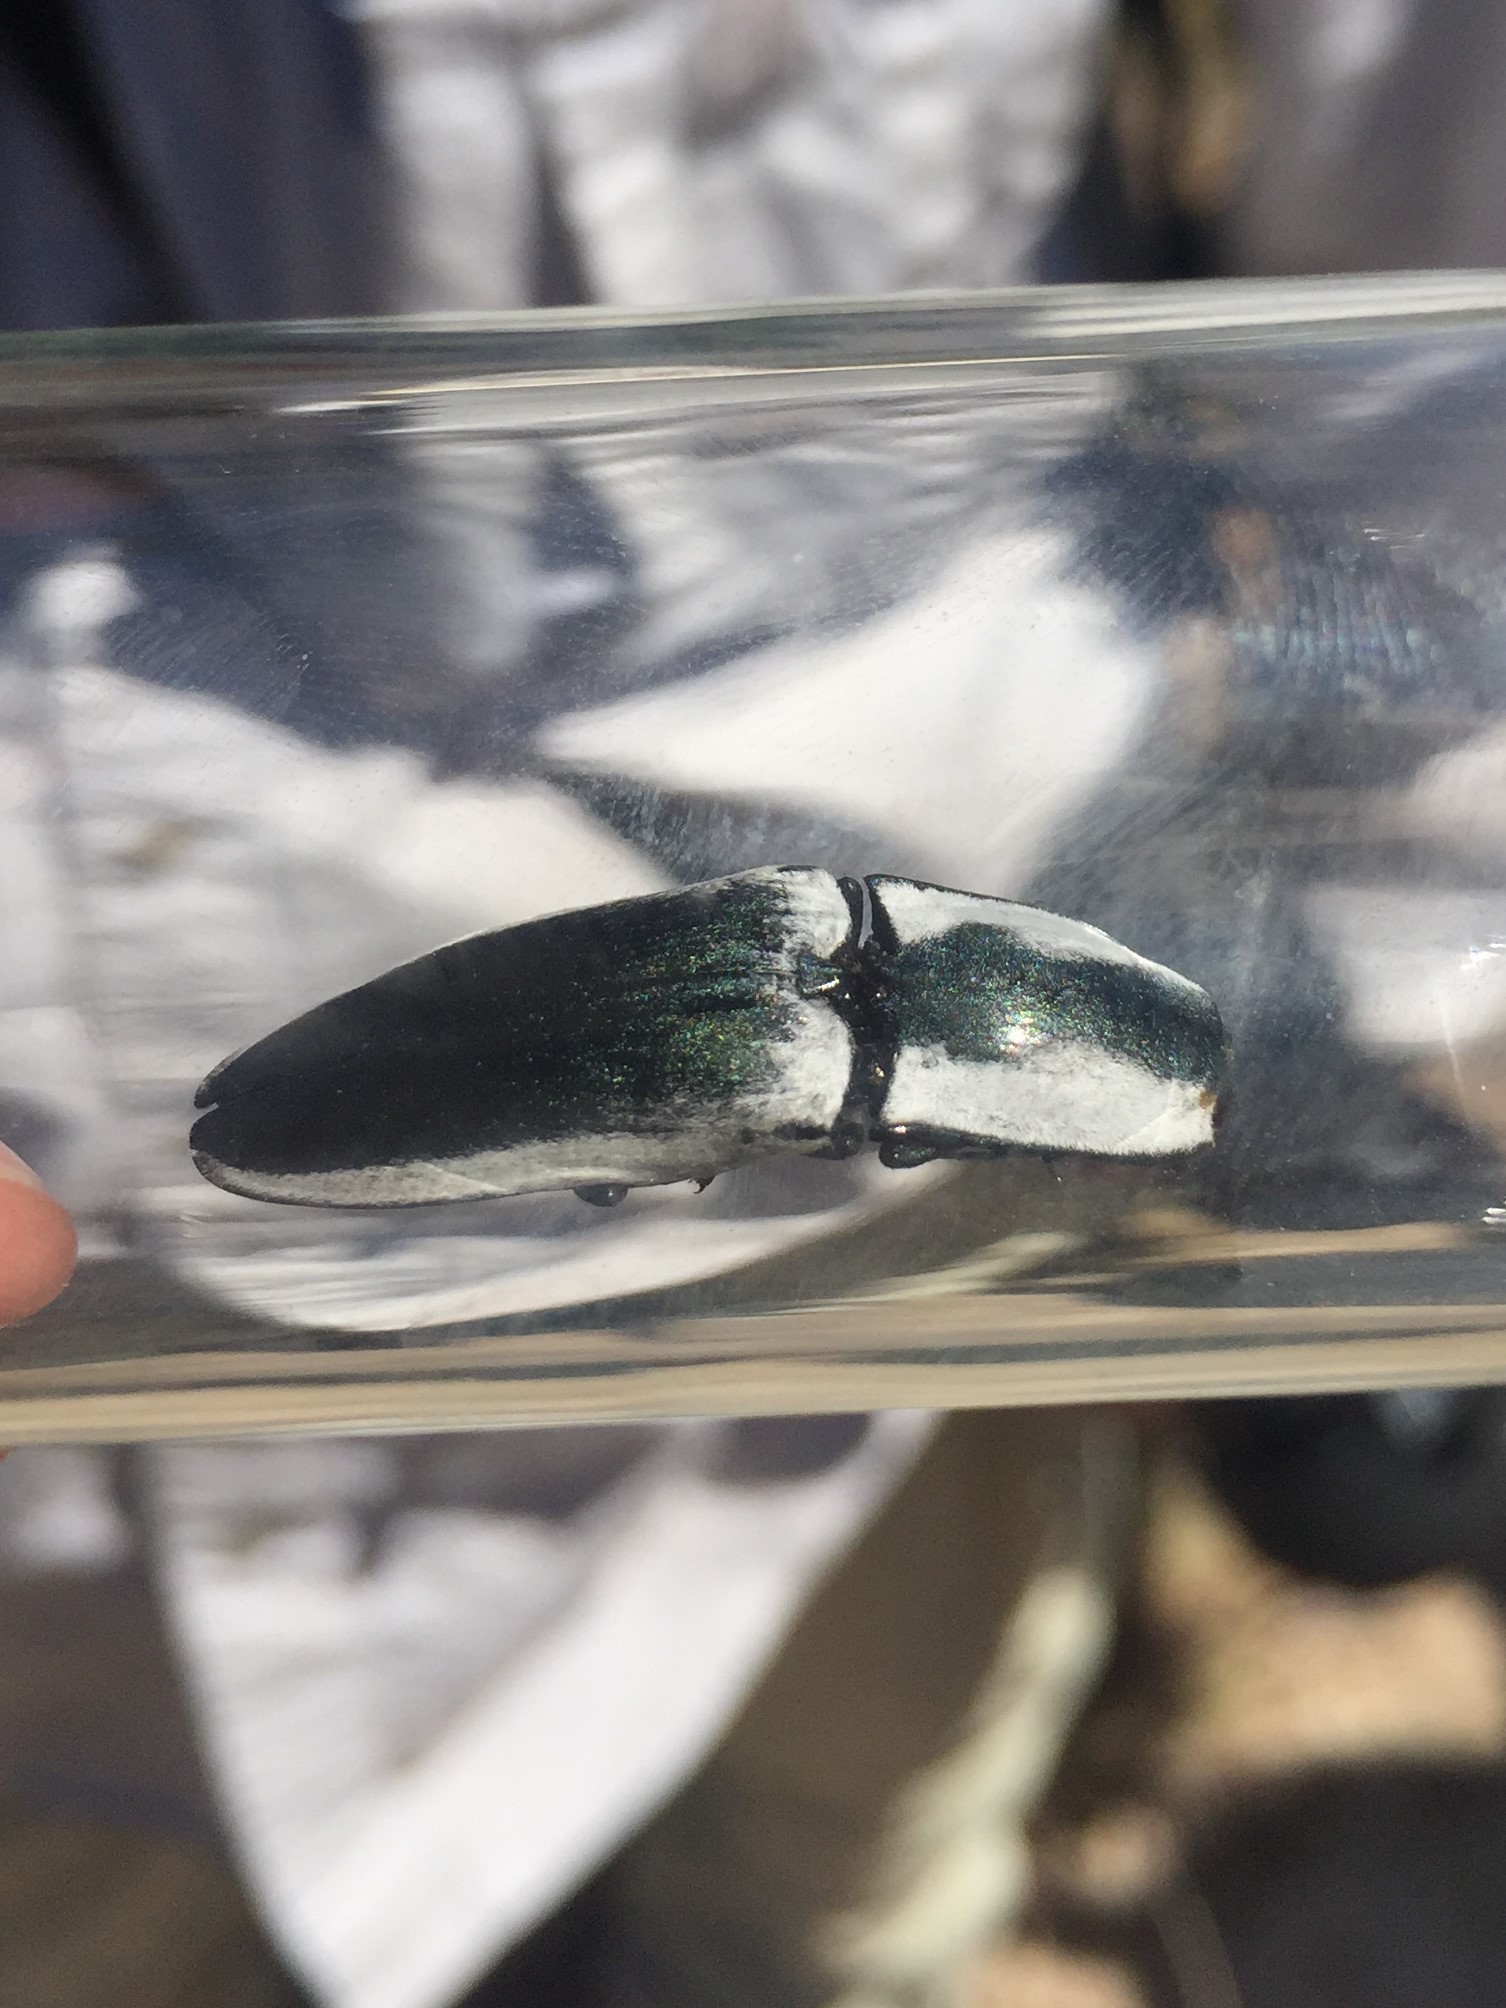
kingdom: Animalia
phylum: Arthropoda
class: Insecta
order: Coleoptera
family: Elateridae
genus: Chalcolepidius
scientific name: Chalcolepidius webbi
